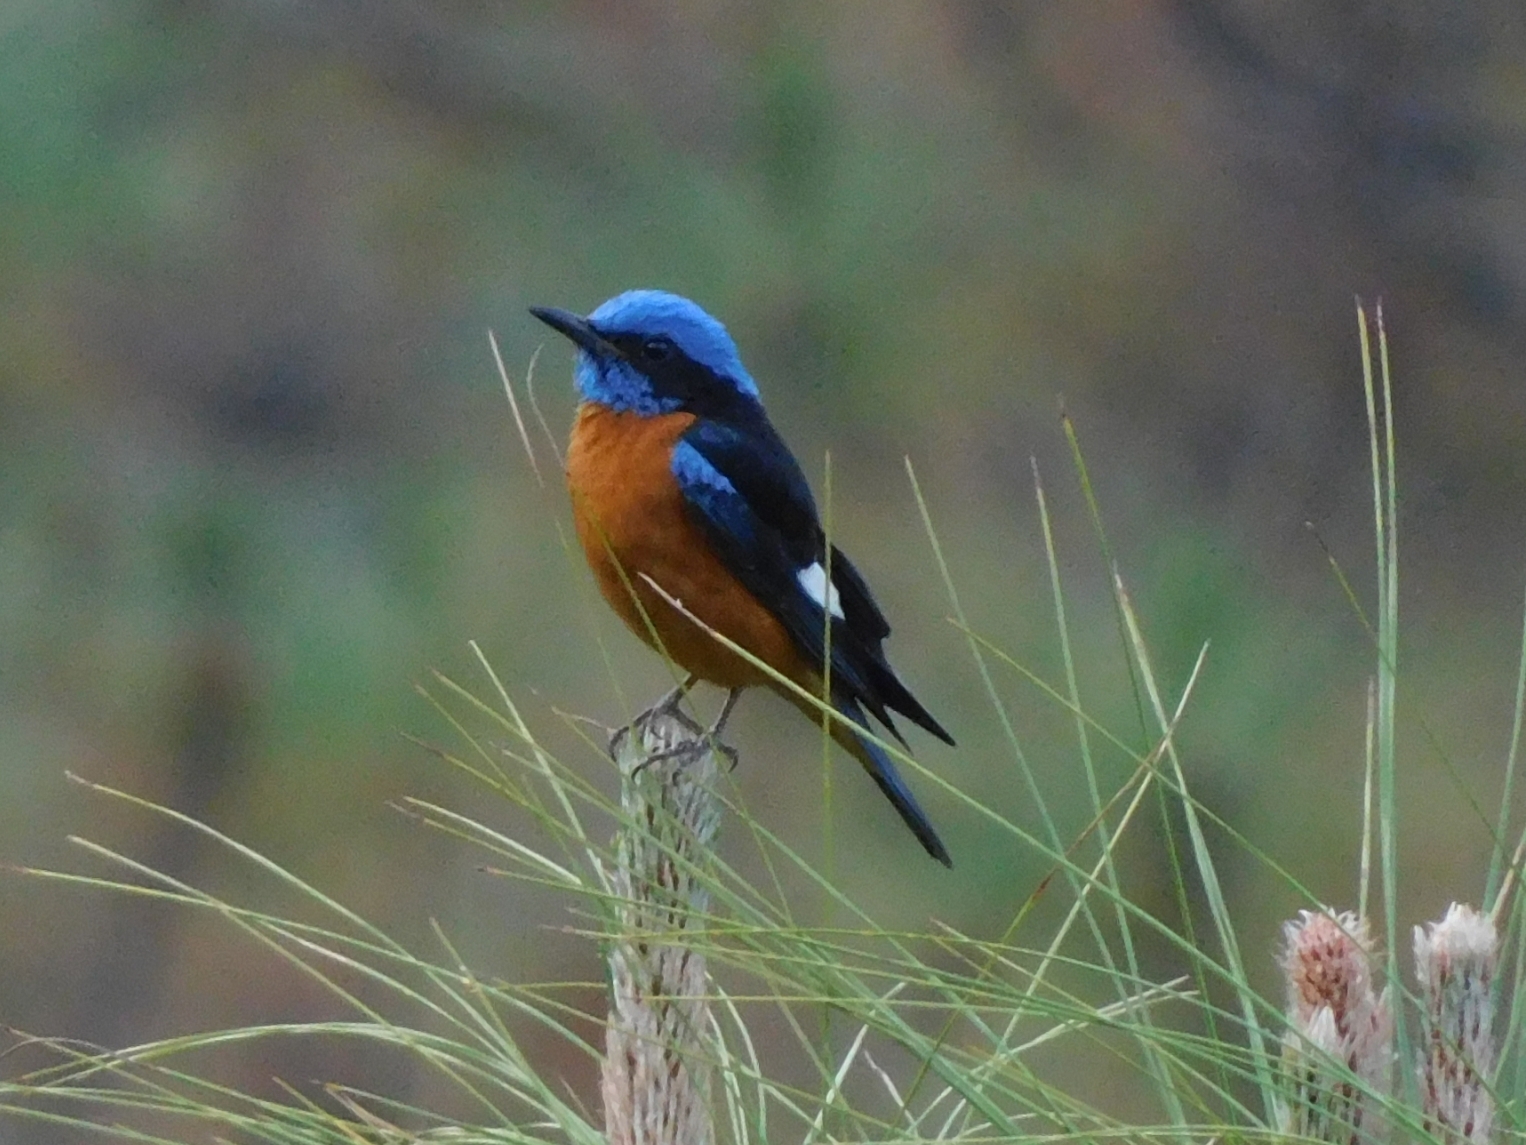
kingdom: Animalia
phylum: Chordata
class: Aves
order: Passeriformes
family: Muscicapidae
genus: Monticola
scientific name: Monticola cinclorhynchus
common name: Blue-capped rock thrush
